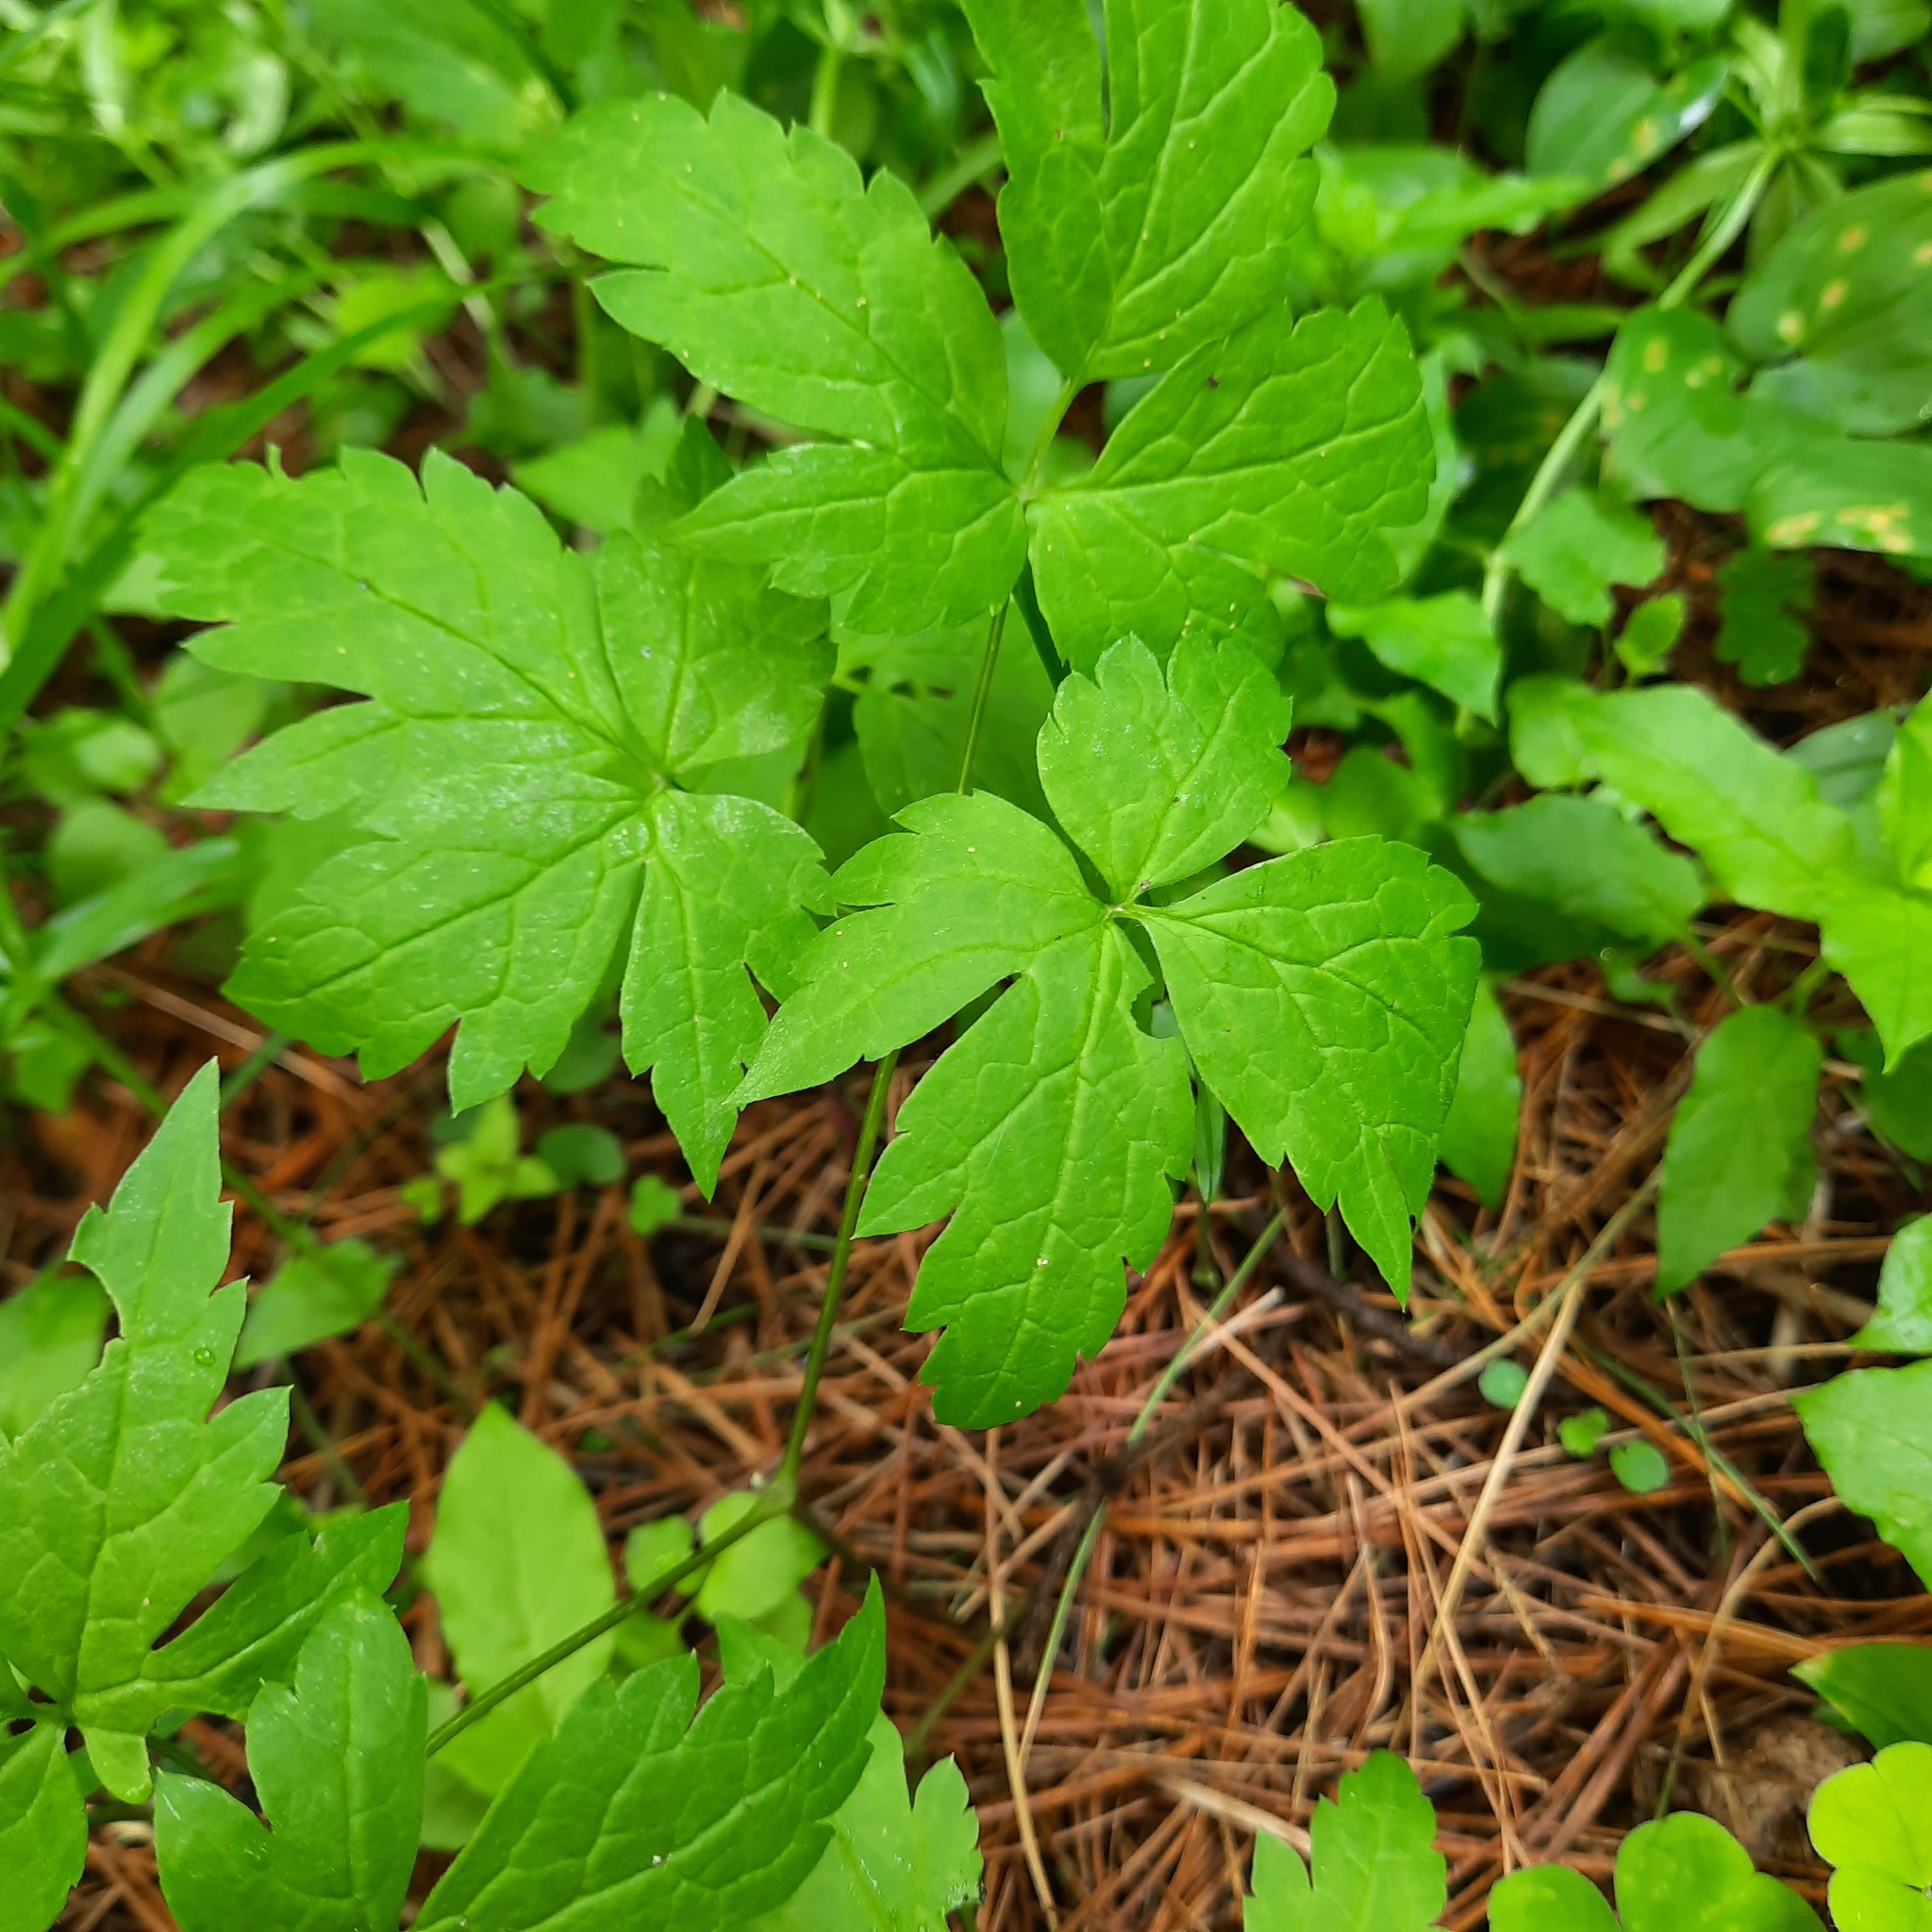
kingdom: Plantae
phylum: Tracheophyta
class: Magnoliopsida
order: Ranunculales
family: Ranunculaceae
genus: Clematis
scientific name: Clematis sibirica
